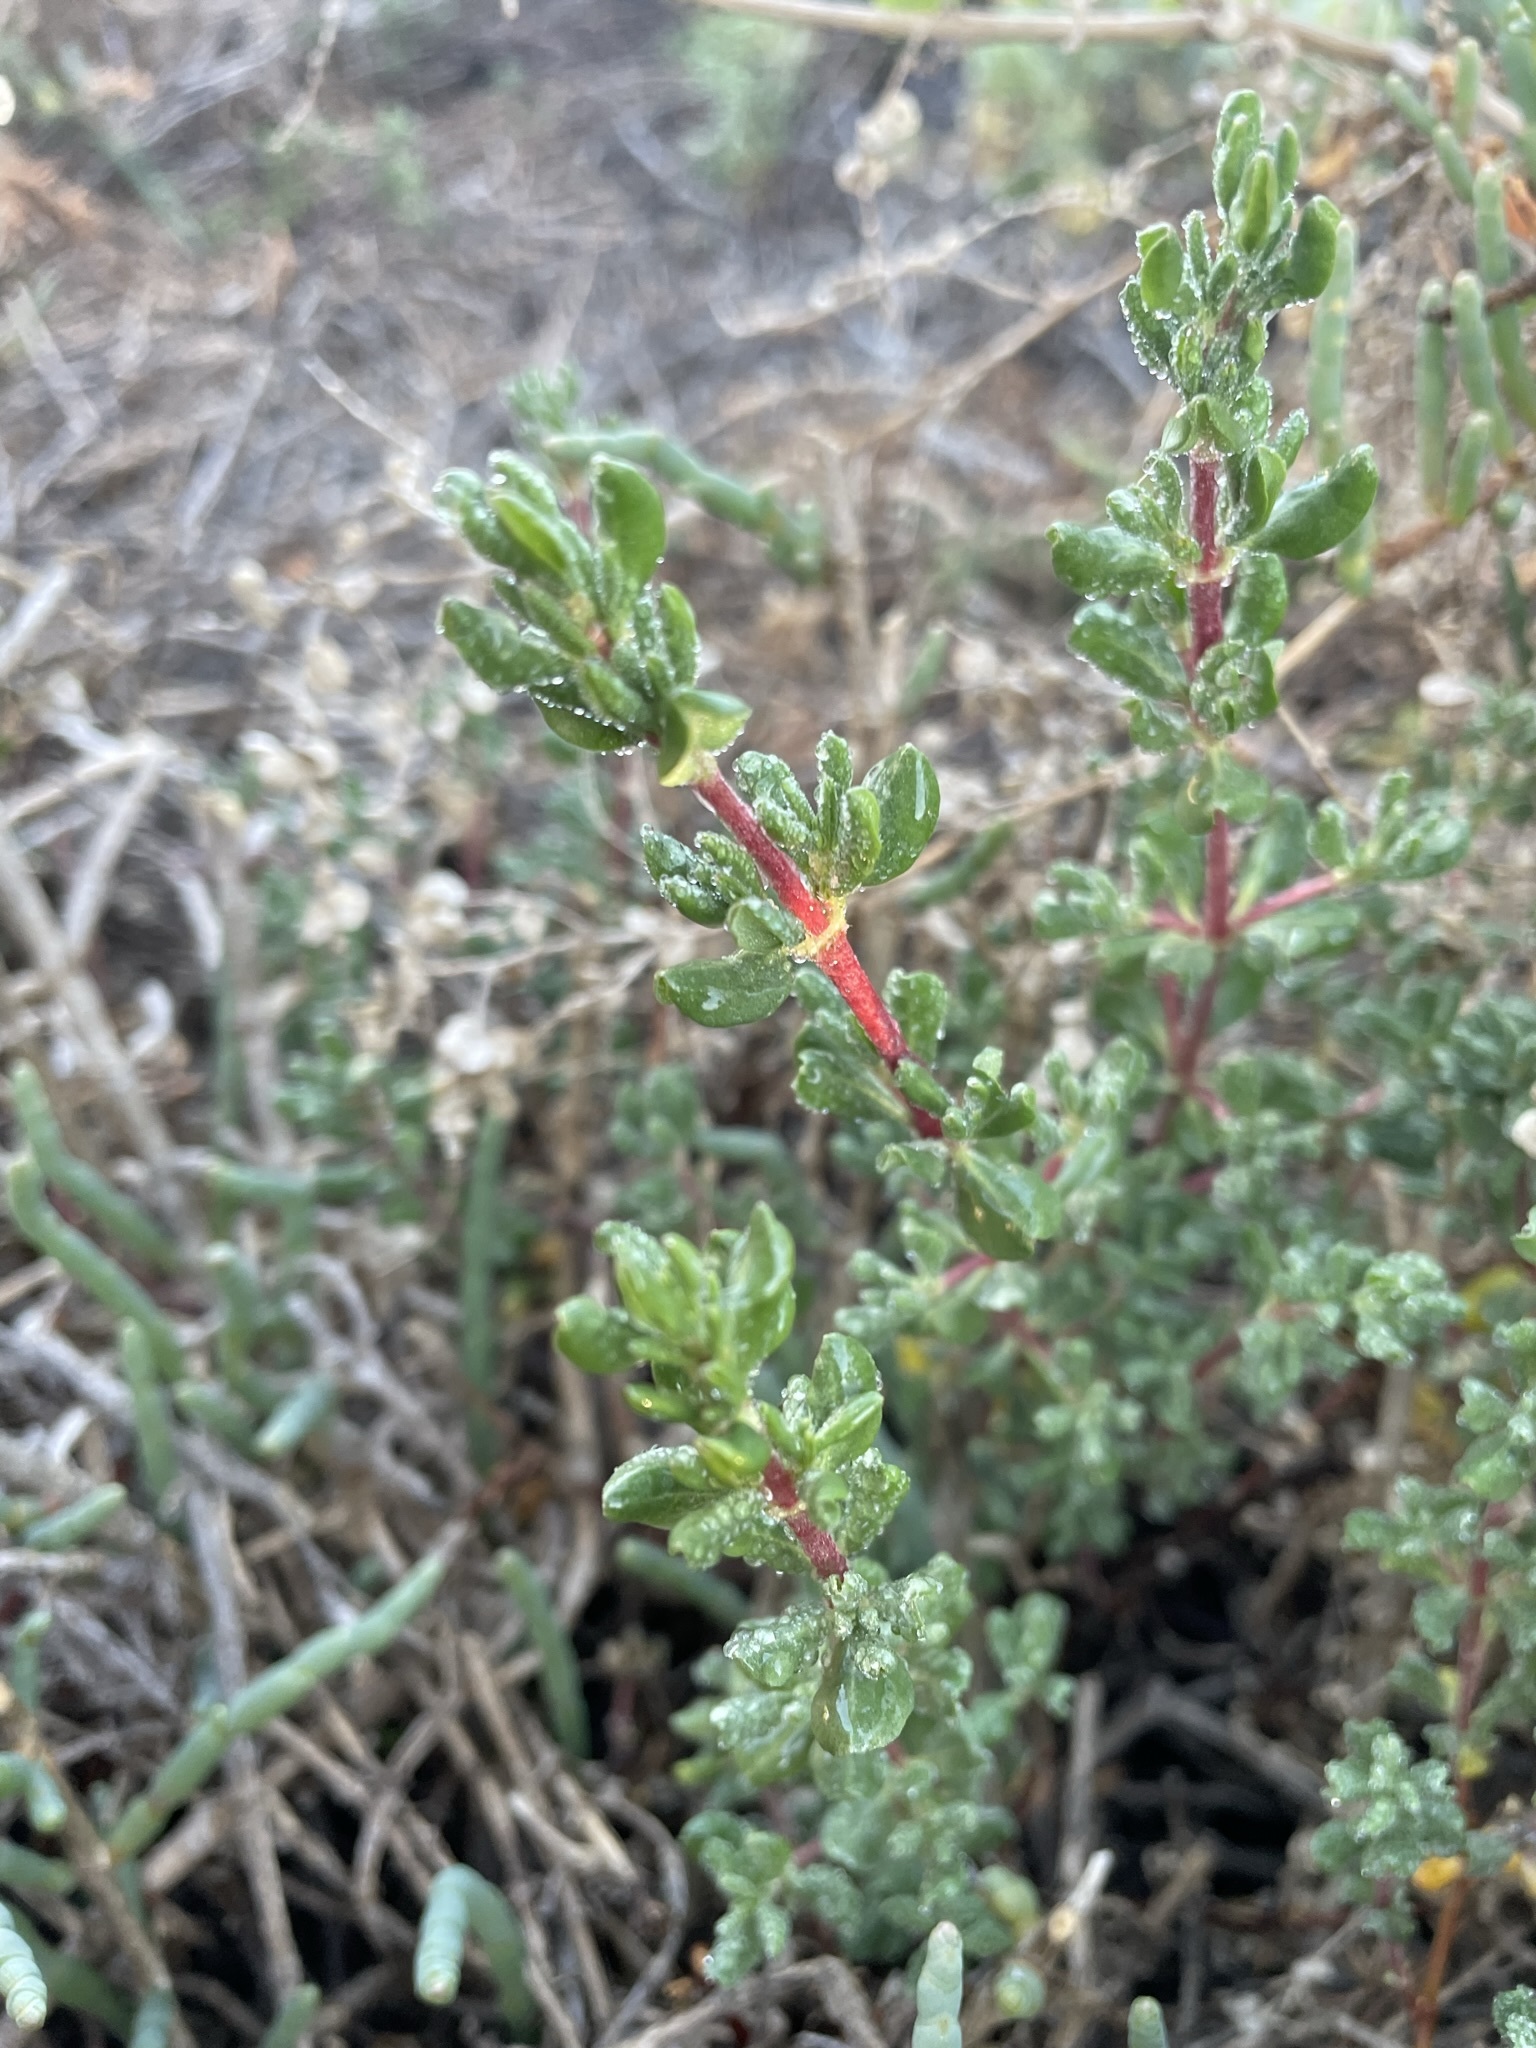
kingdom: Plantae
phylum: Tracheophyta
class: Magnoliopsida
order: Caryophyllales
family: Frankeniaceae
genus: Frankenia
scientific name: Frankenia salina
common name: Alkali seaheath
